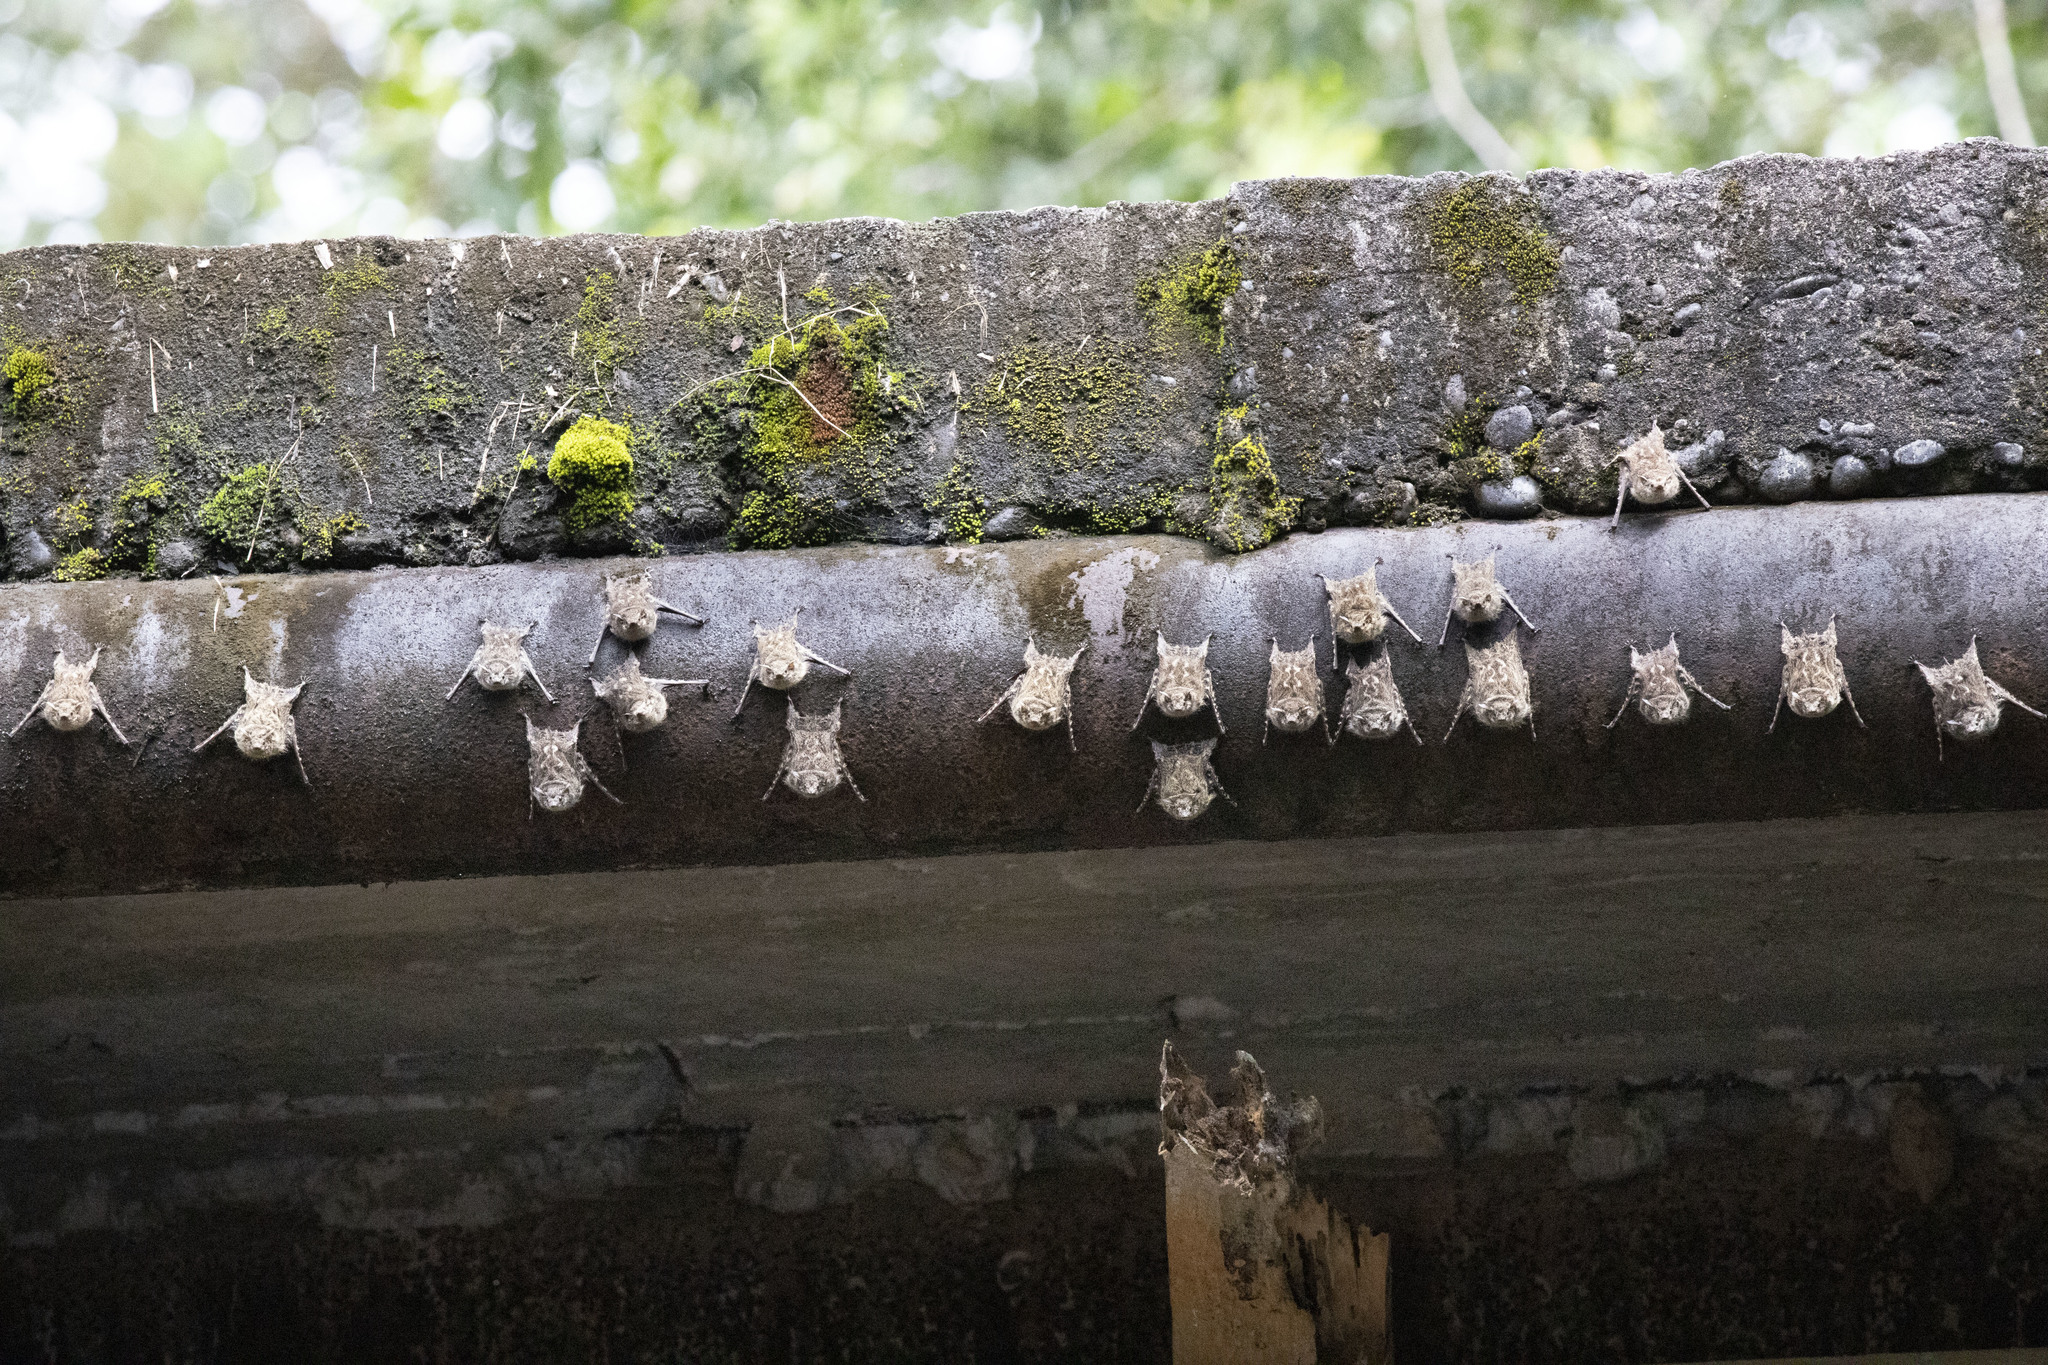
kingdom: Animalia
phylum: Chordata
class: Mammalia
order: Chiroptera
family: Emballonuridae
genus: Rhynchonycteris
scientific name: Rhynchonycteris naso
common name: Proboscis bat
